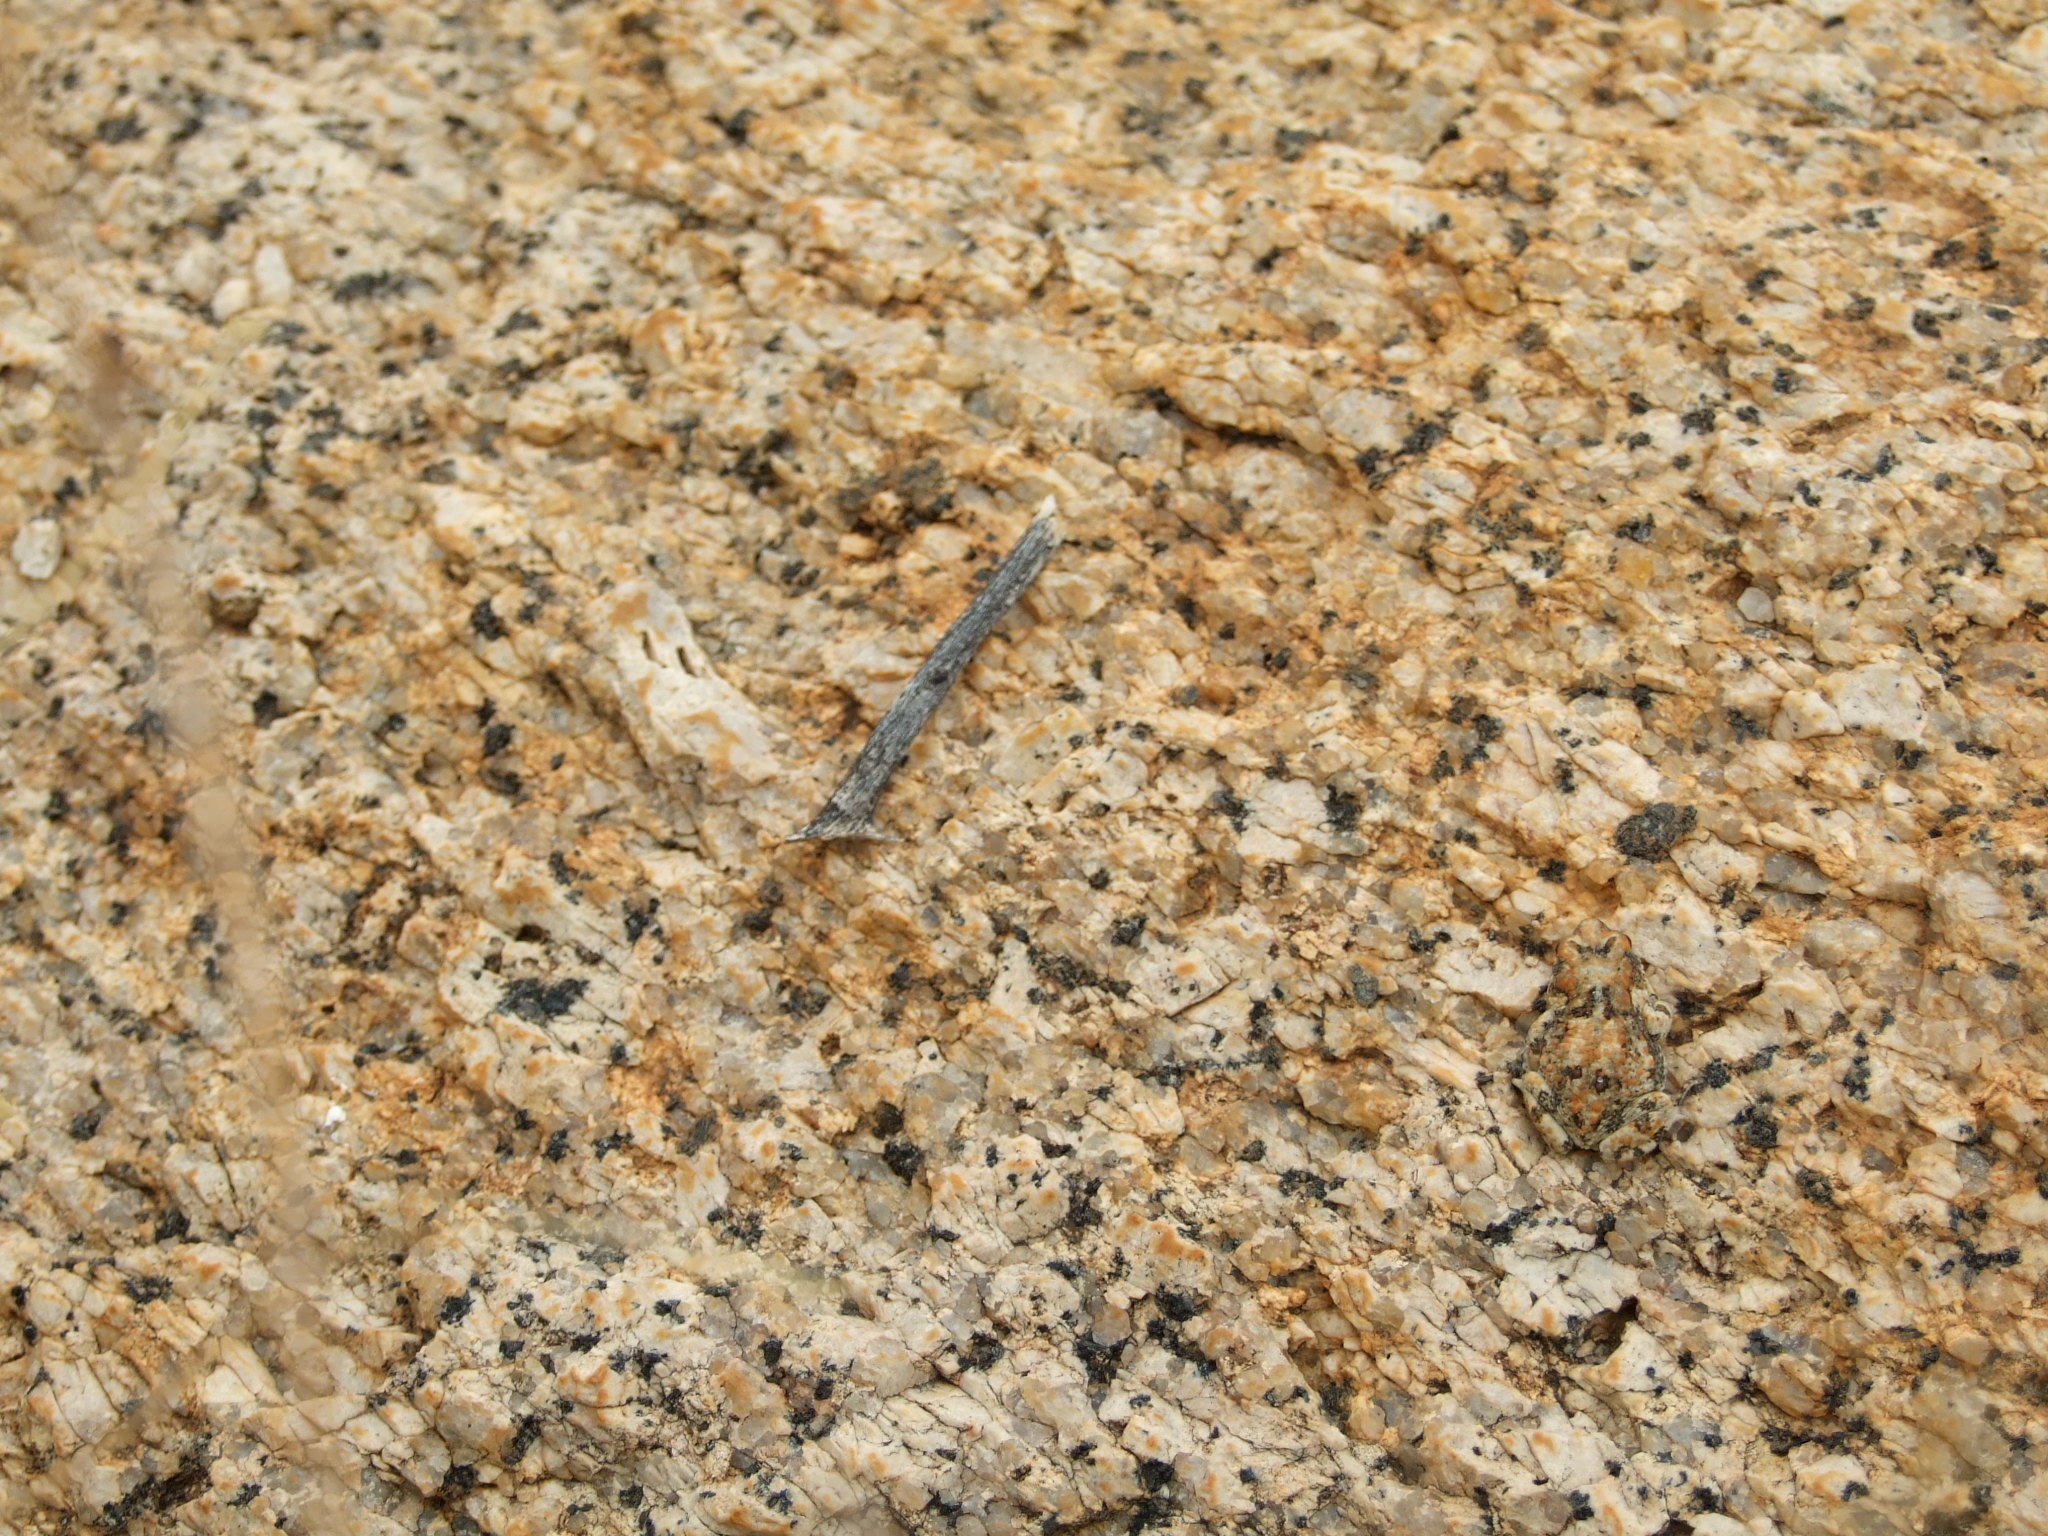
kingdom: Animalia
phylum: Chordata
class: Amphibia
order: Anura
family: Bufonidae
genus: Poyntonophrynus
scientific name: Poyntonophrynus hoeschi
